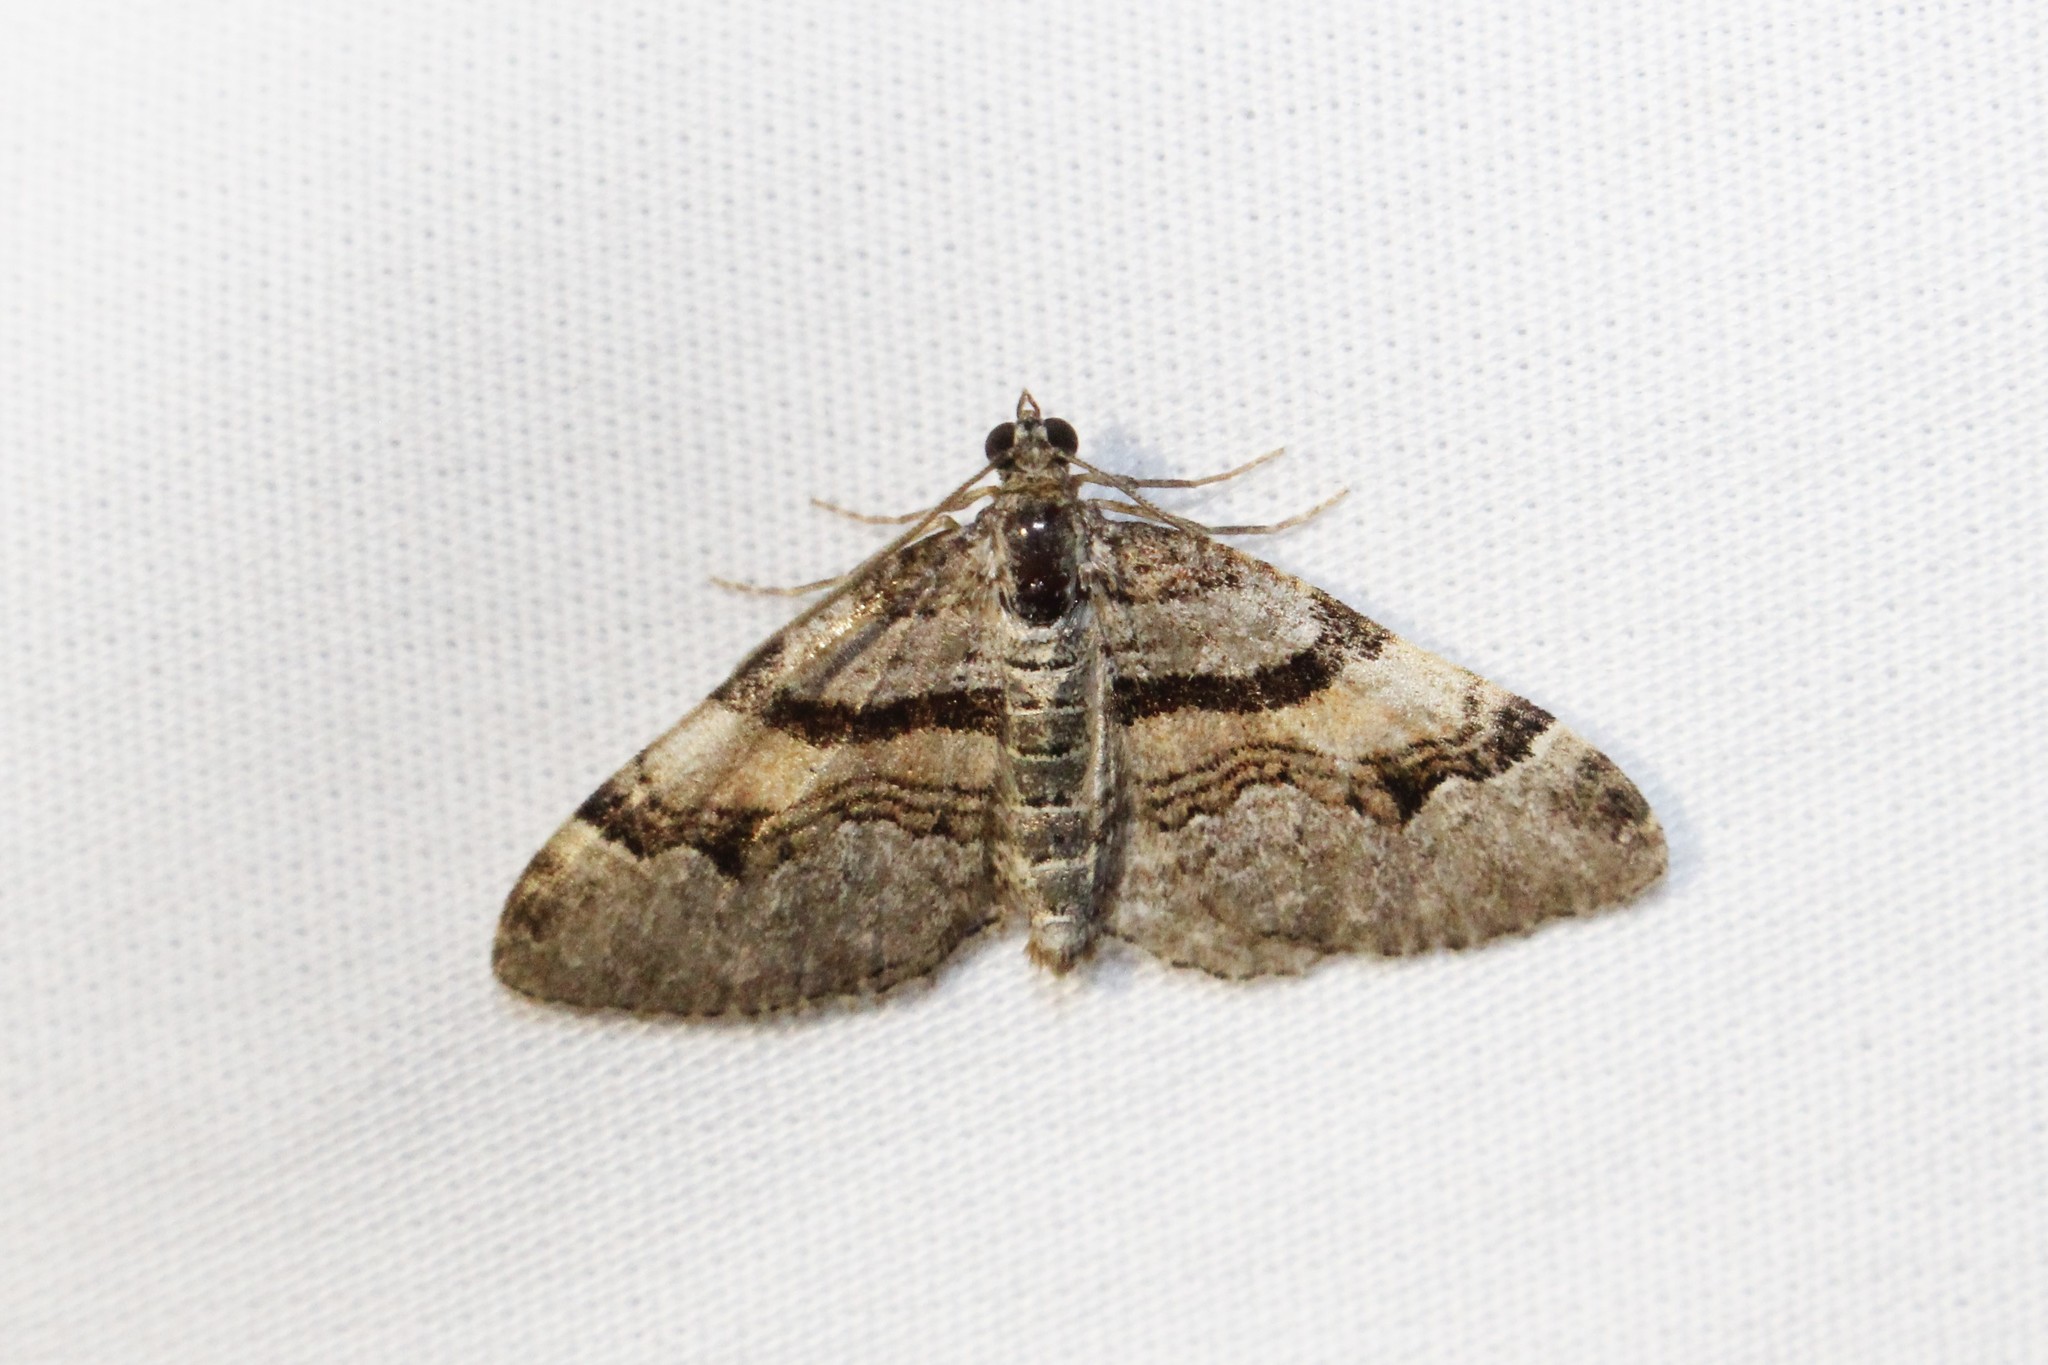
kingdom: Animalia
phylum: Arthropoda
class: Insecta
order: Lepidoptera
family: Geometridae
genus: Xanthorhoe
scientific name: Xanthorhoe labradorensis
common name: Labrador carpet
